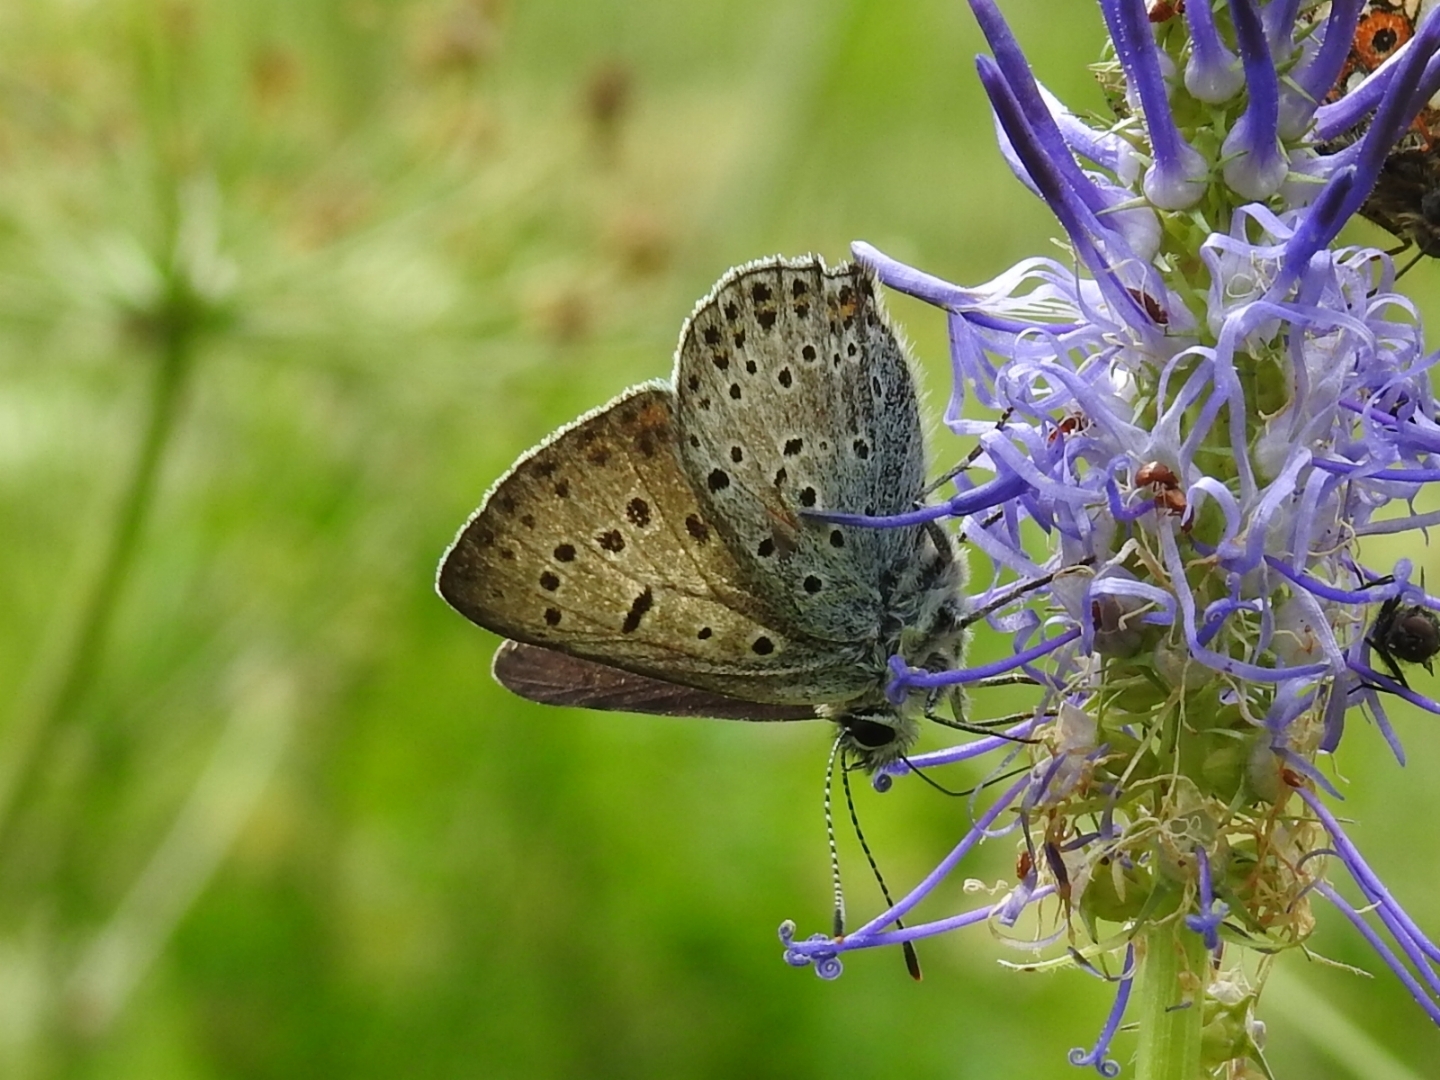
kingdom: Animalia
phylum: Arthropoda
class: Insecta
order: Lepidoptera
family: Lycaenidae
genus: Loweia
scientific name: Loweia tityrus
